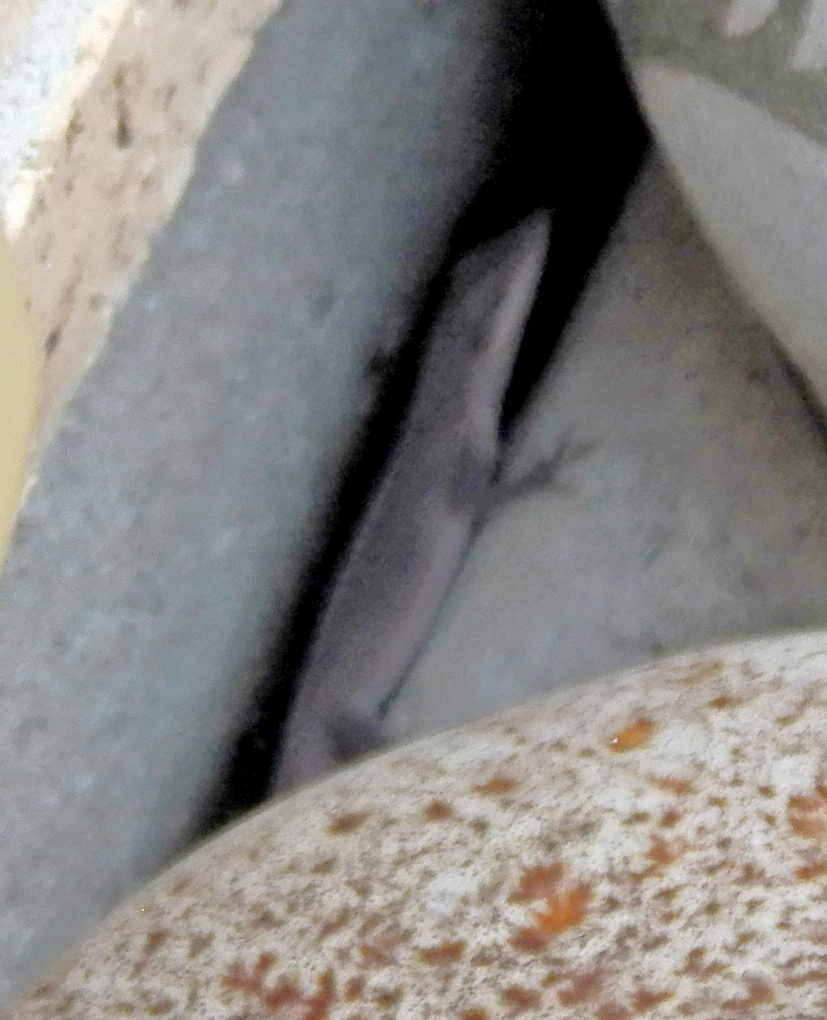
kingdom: Animalia
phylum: Chordata
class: Squamata
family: Dactyloidae
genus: Anolis
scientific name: Anolis carolinensis
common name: Green anole
